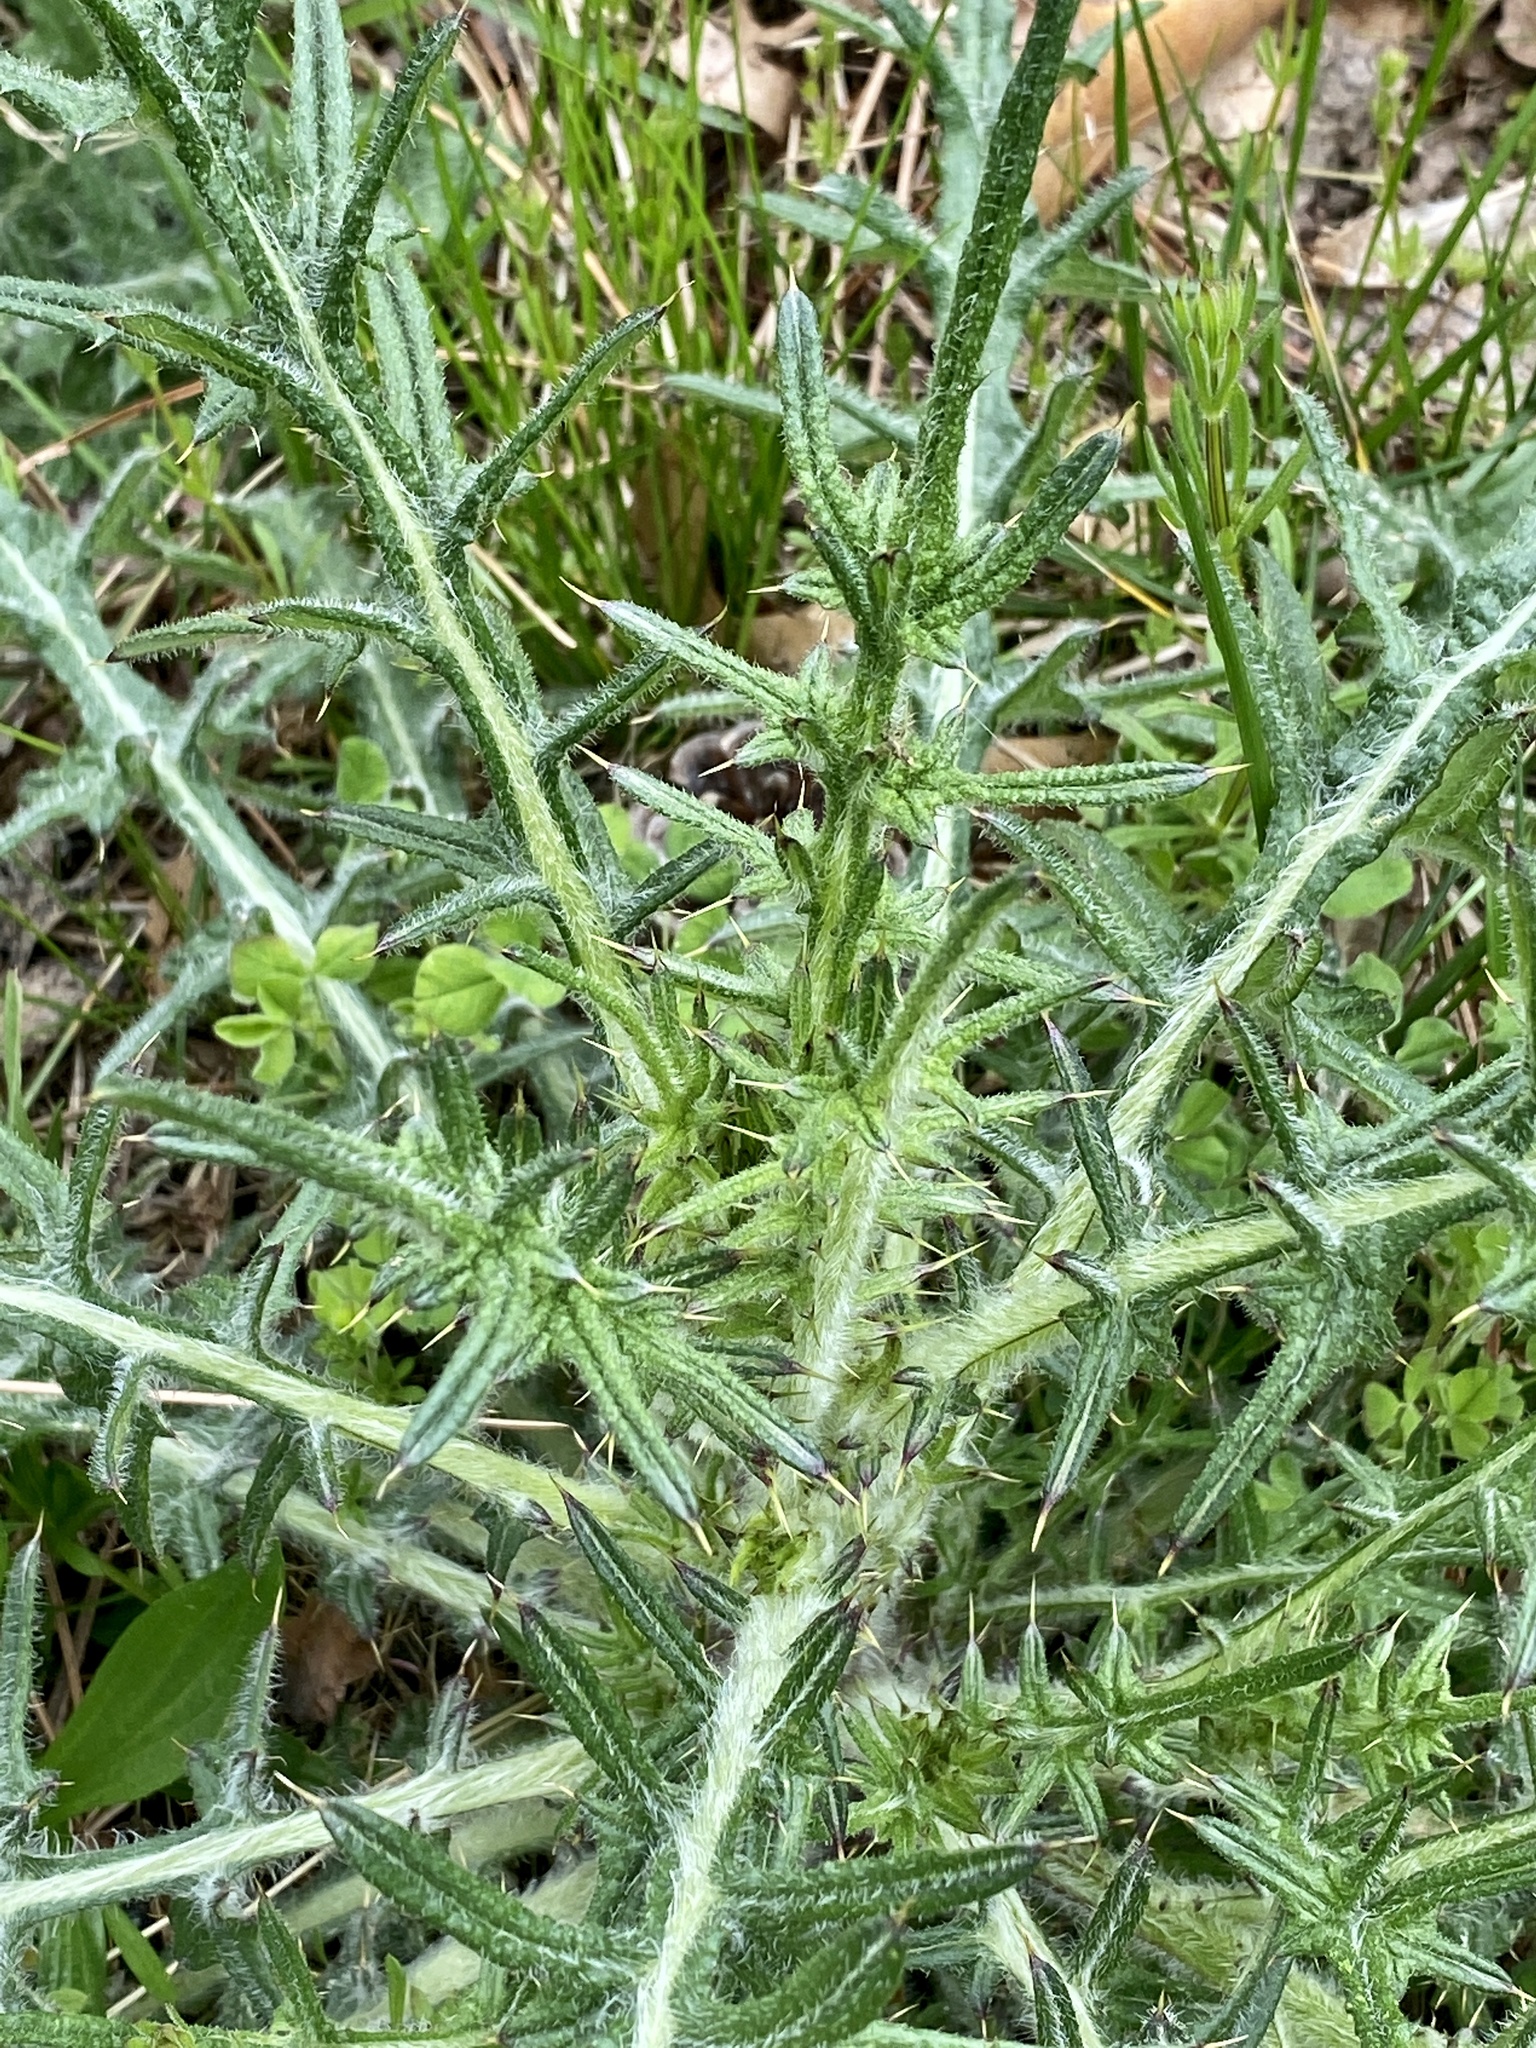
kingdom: Plantae
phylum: Tracheophyta
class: Magnoliopsida
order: Asterales
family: Asteraceae
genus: Cirsium
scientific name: Cirsium vulgare
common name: Bull thistle
